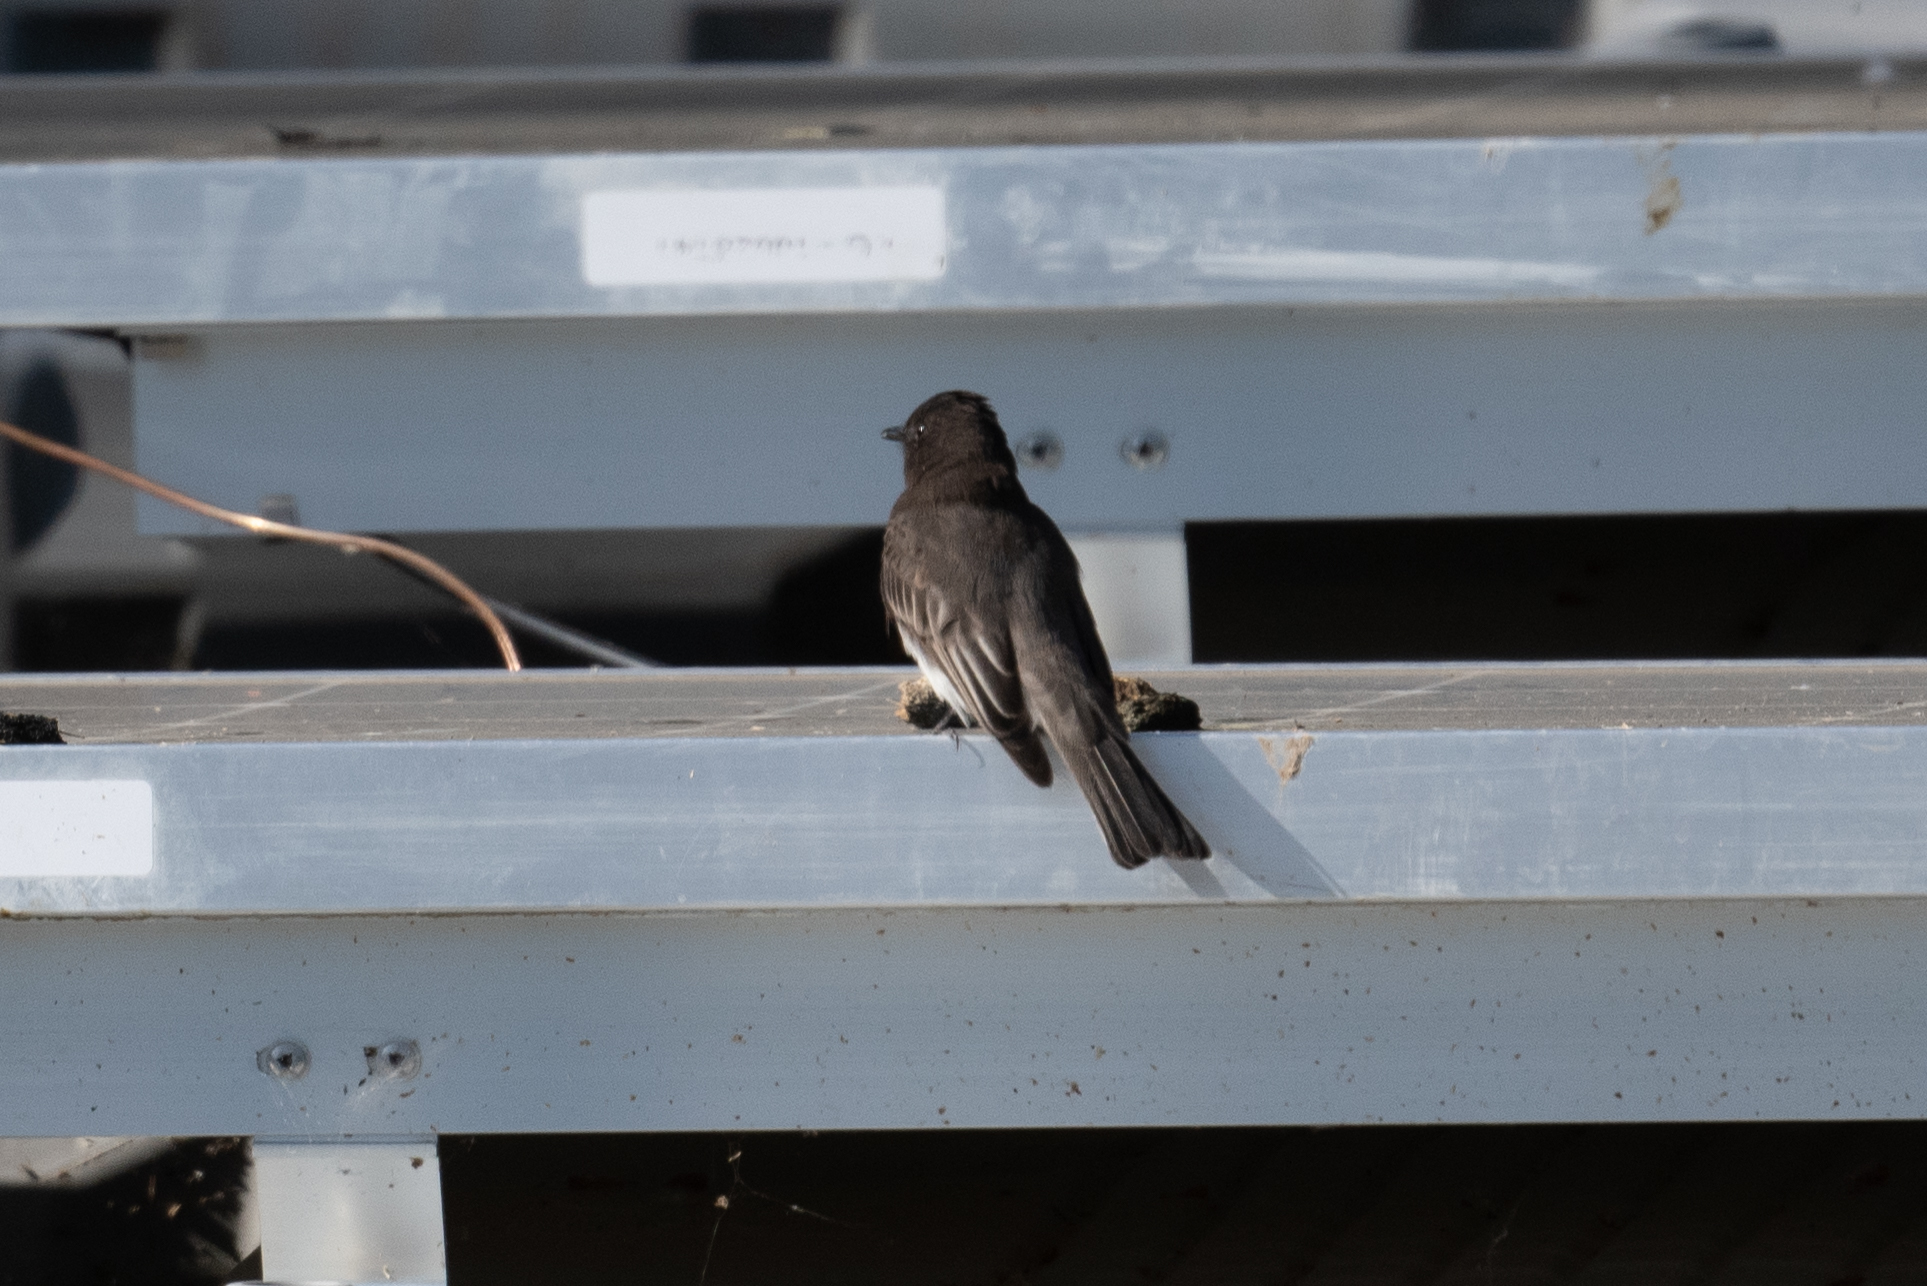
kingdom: Animalia
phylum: Chordata
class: Aves
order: Passeriformes
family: Tyrannidae
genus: Sayornis
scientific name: Sayornis nigricans
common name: Black phoebe
